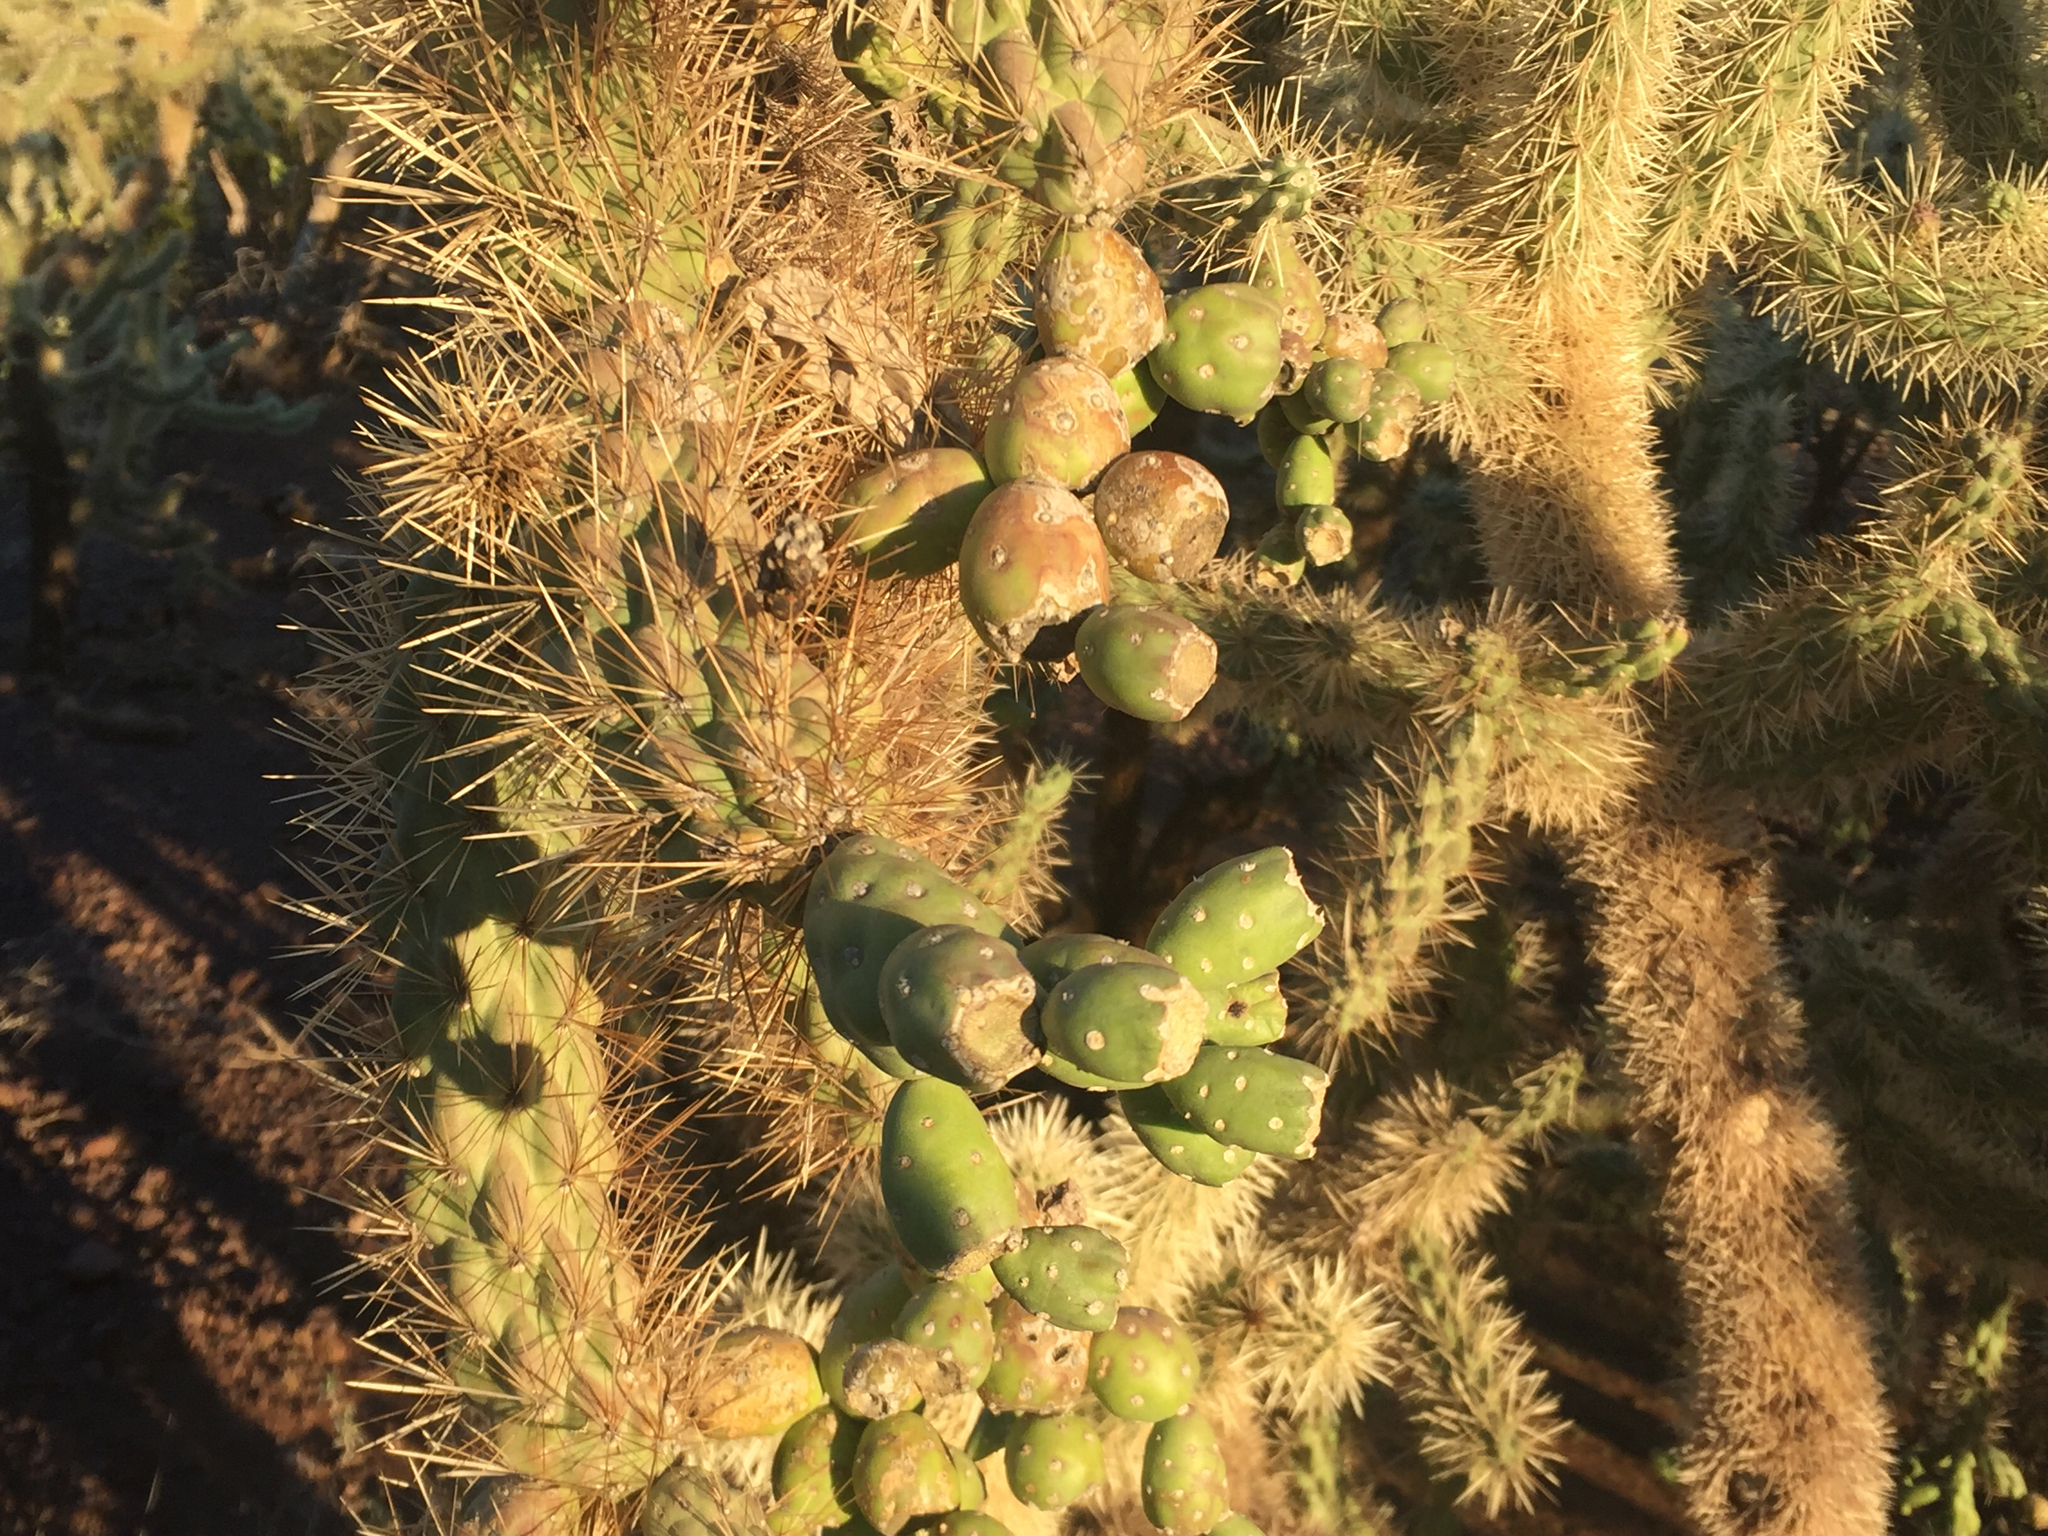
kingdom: Plantae
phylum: Tracheophyta
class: Magnoliopsida
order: Caryophyllales
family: Cactaceae
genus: Cylindropuntia
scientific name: Cylindropuntia fulgida
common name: Jumping cholla
